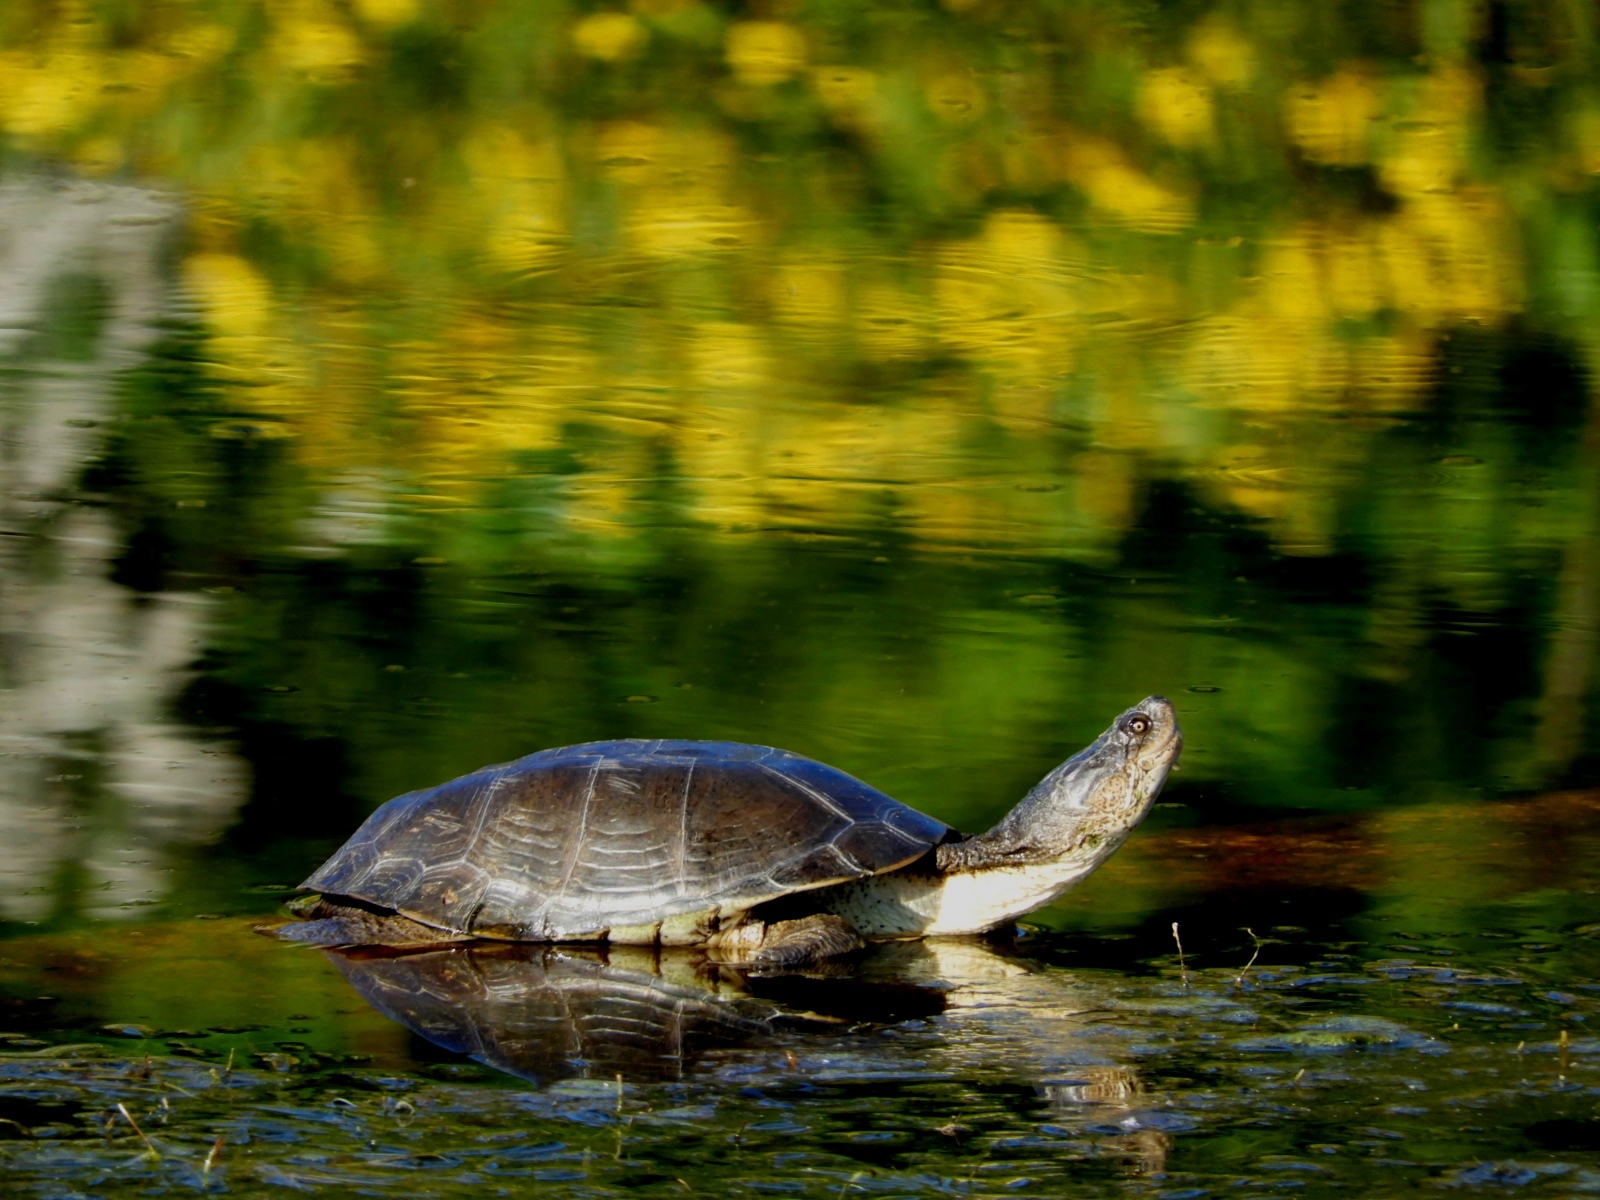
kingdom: Animalia
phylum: Chordata
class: Testudines
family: Pelomedusidae
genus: Pelomedusa
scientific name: Pelomedusa galeata
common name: South african helmeted terrapin
